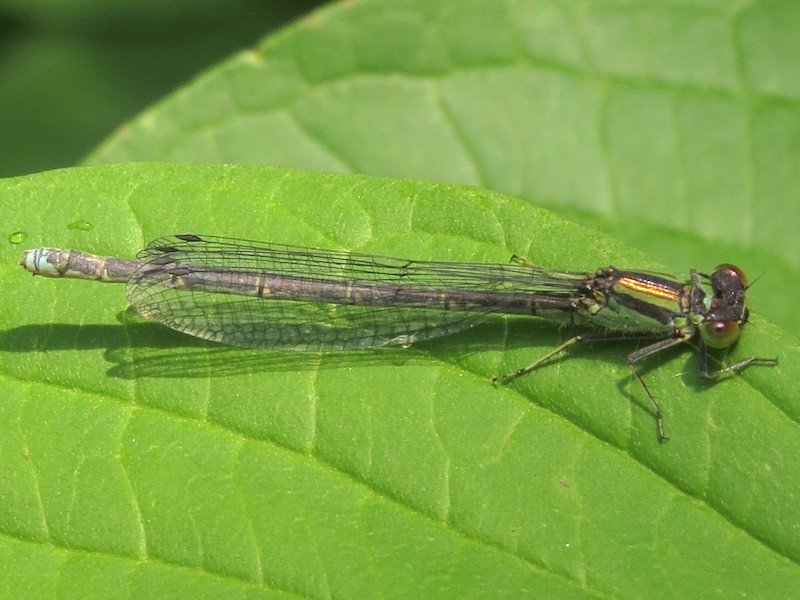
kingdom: Animalia
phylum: Arthropoda
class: Insecta
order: Odonata
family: Coenagrionidae
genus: Erythromma
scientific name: Erythromma viridulum
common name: Small red-eyed damselfly
